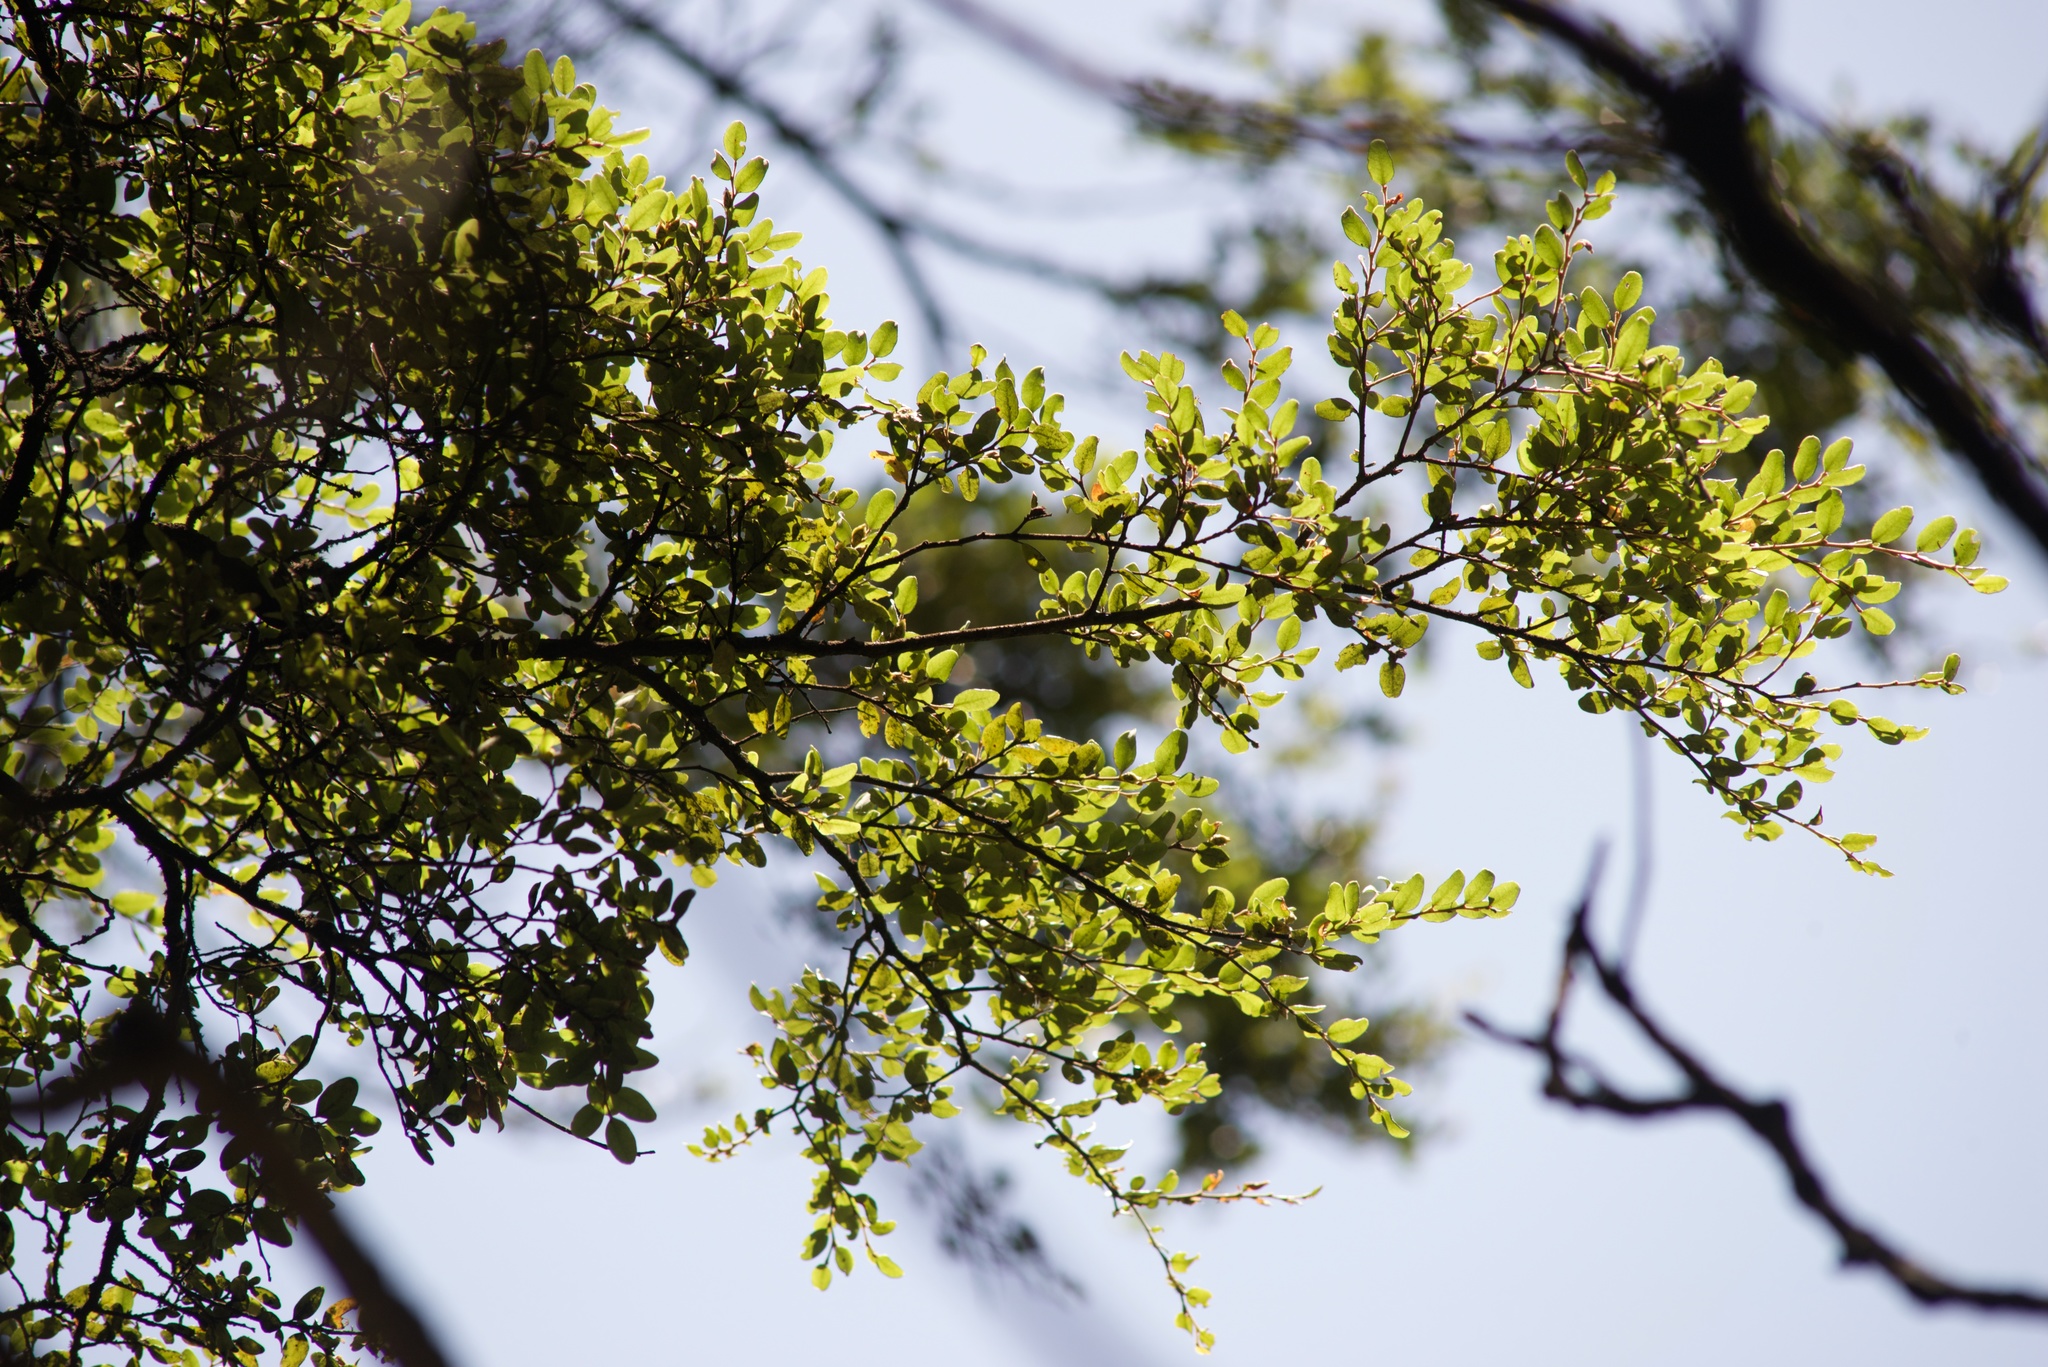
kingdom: Plantae
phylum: Tracheophyta
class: Magnoliopsida
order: Fagales
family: Nothofagaceae
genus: Nothofagus
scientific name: Nothofagus solandri
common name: Black beech
